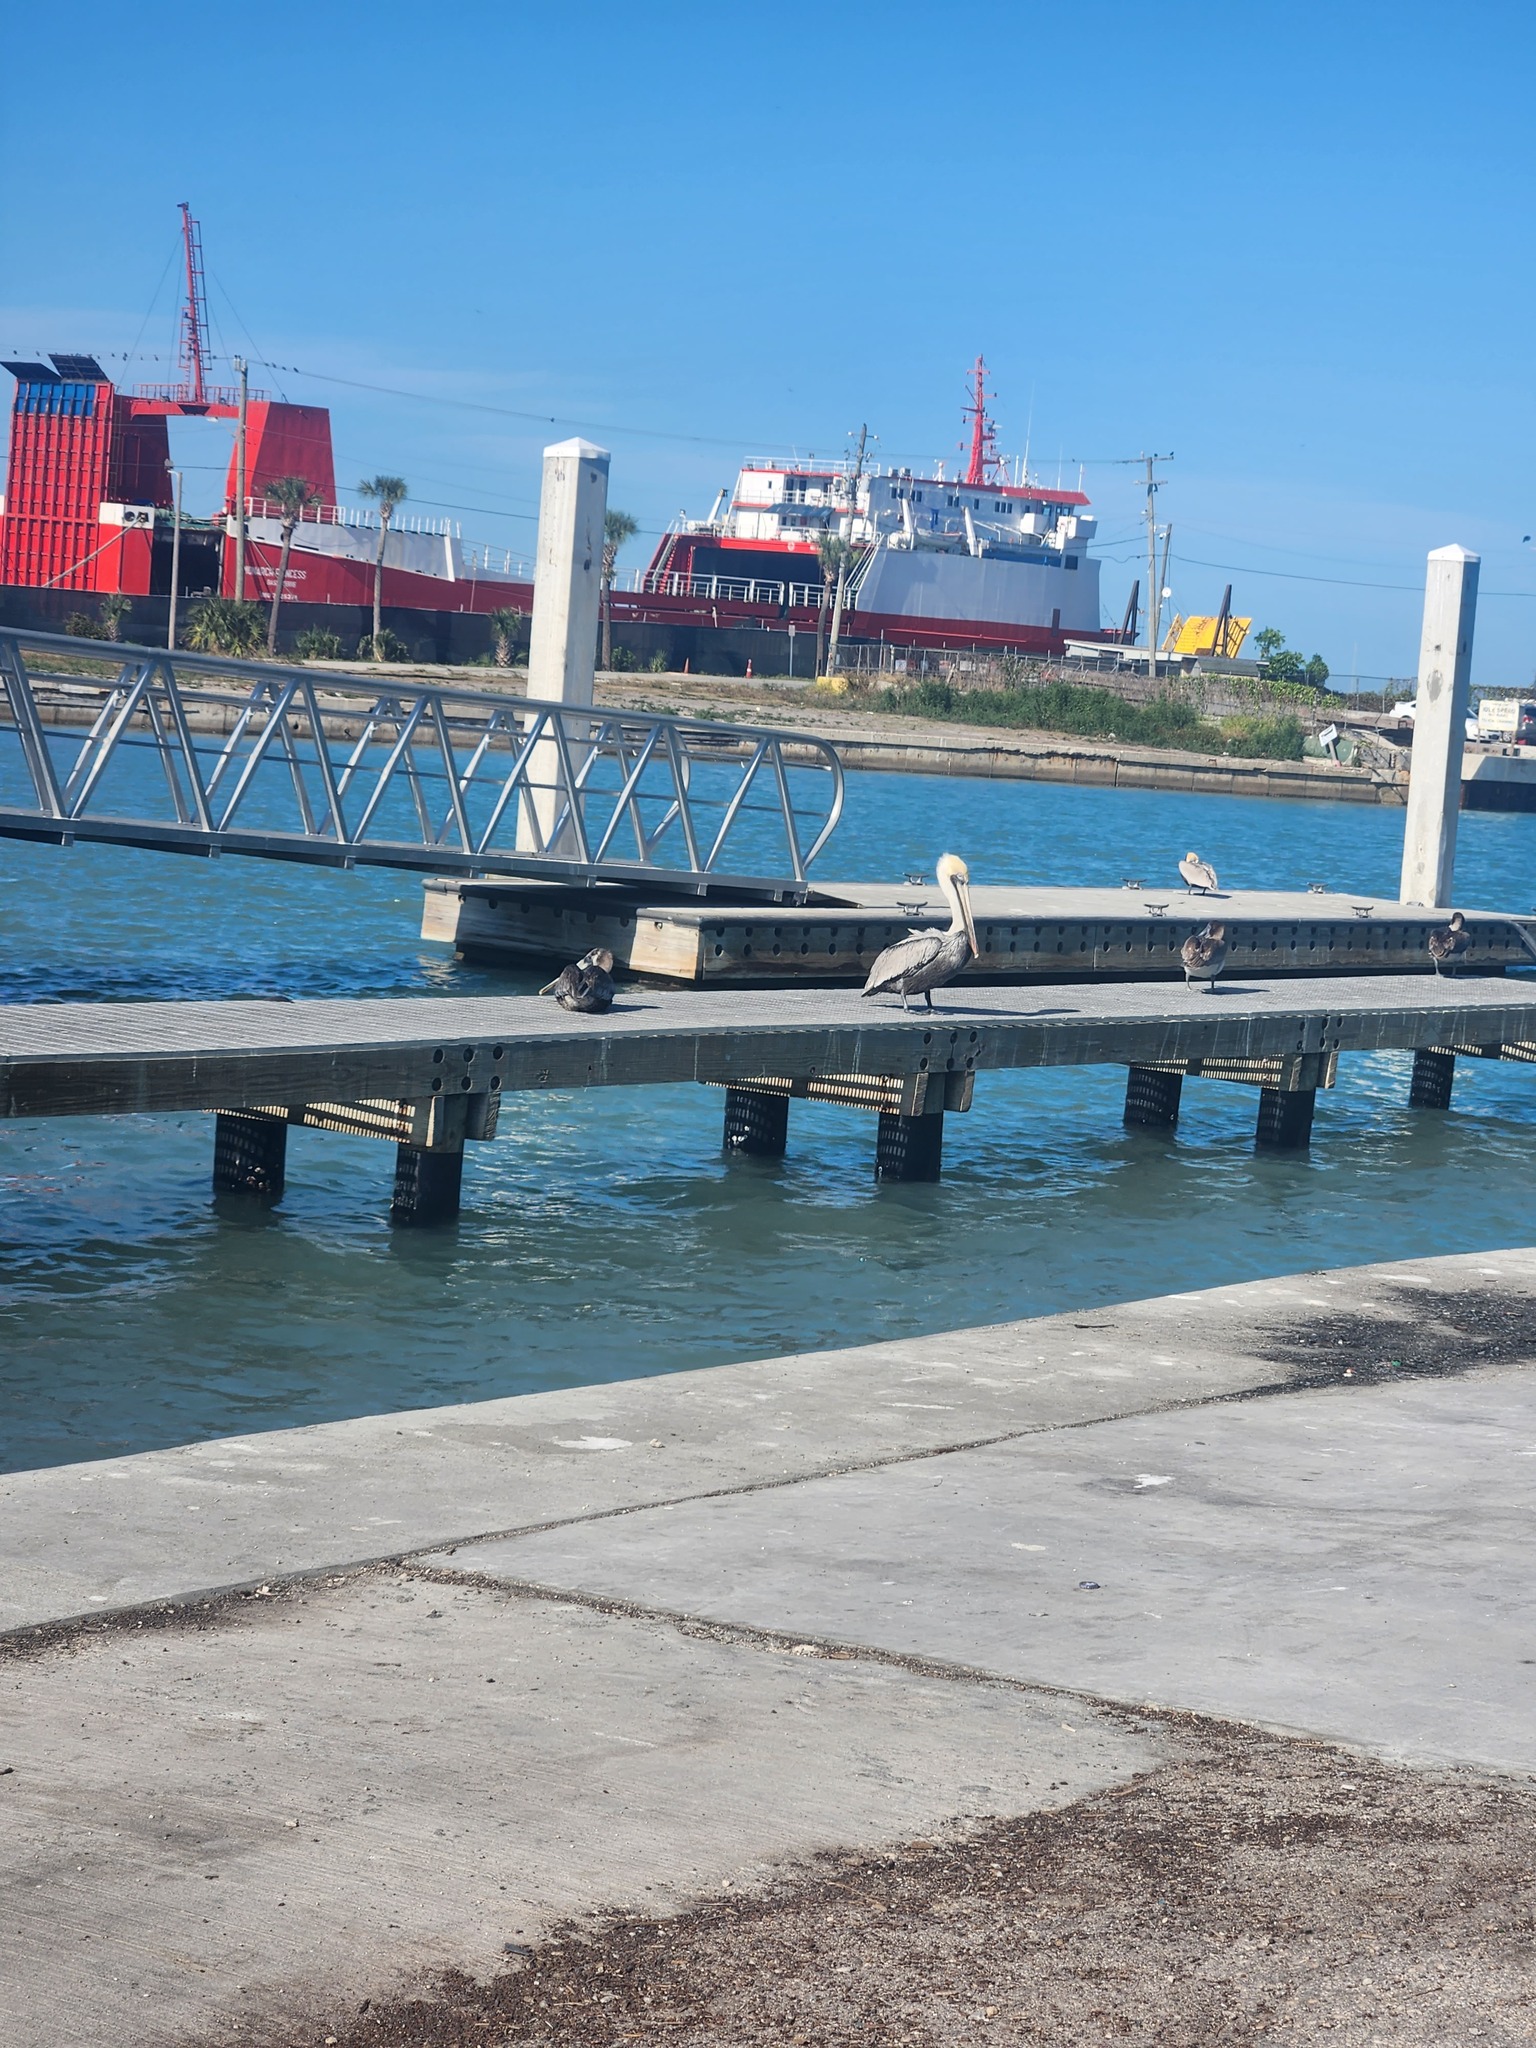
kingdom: Animalia
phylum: Chordata
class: Aves
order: Pelecaniformes
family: Pelecanidae
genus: Pelecanus
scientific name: Pelecanus occidentalis
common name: Brown pelican
